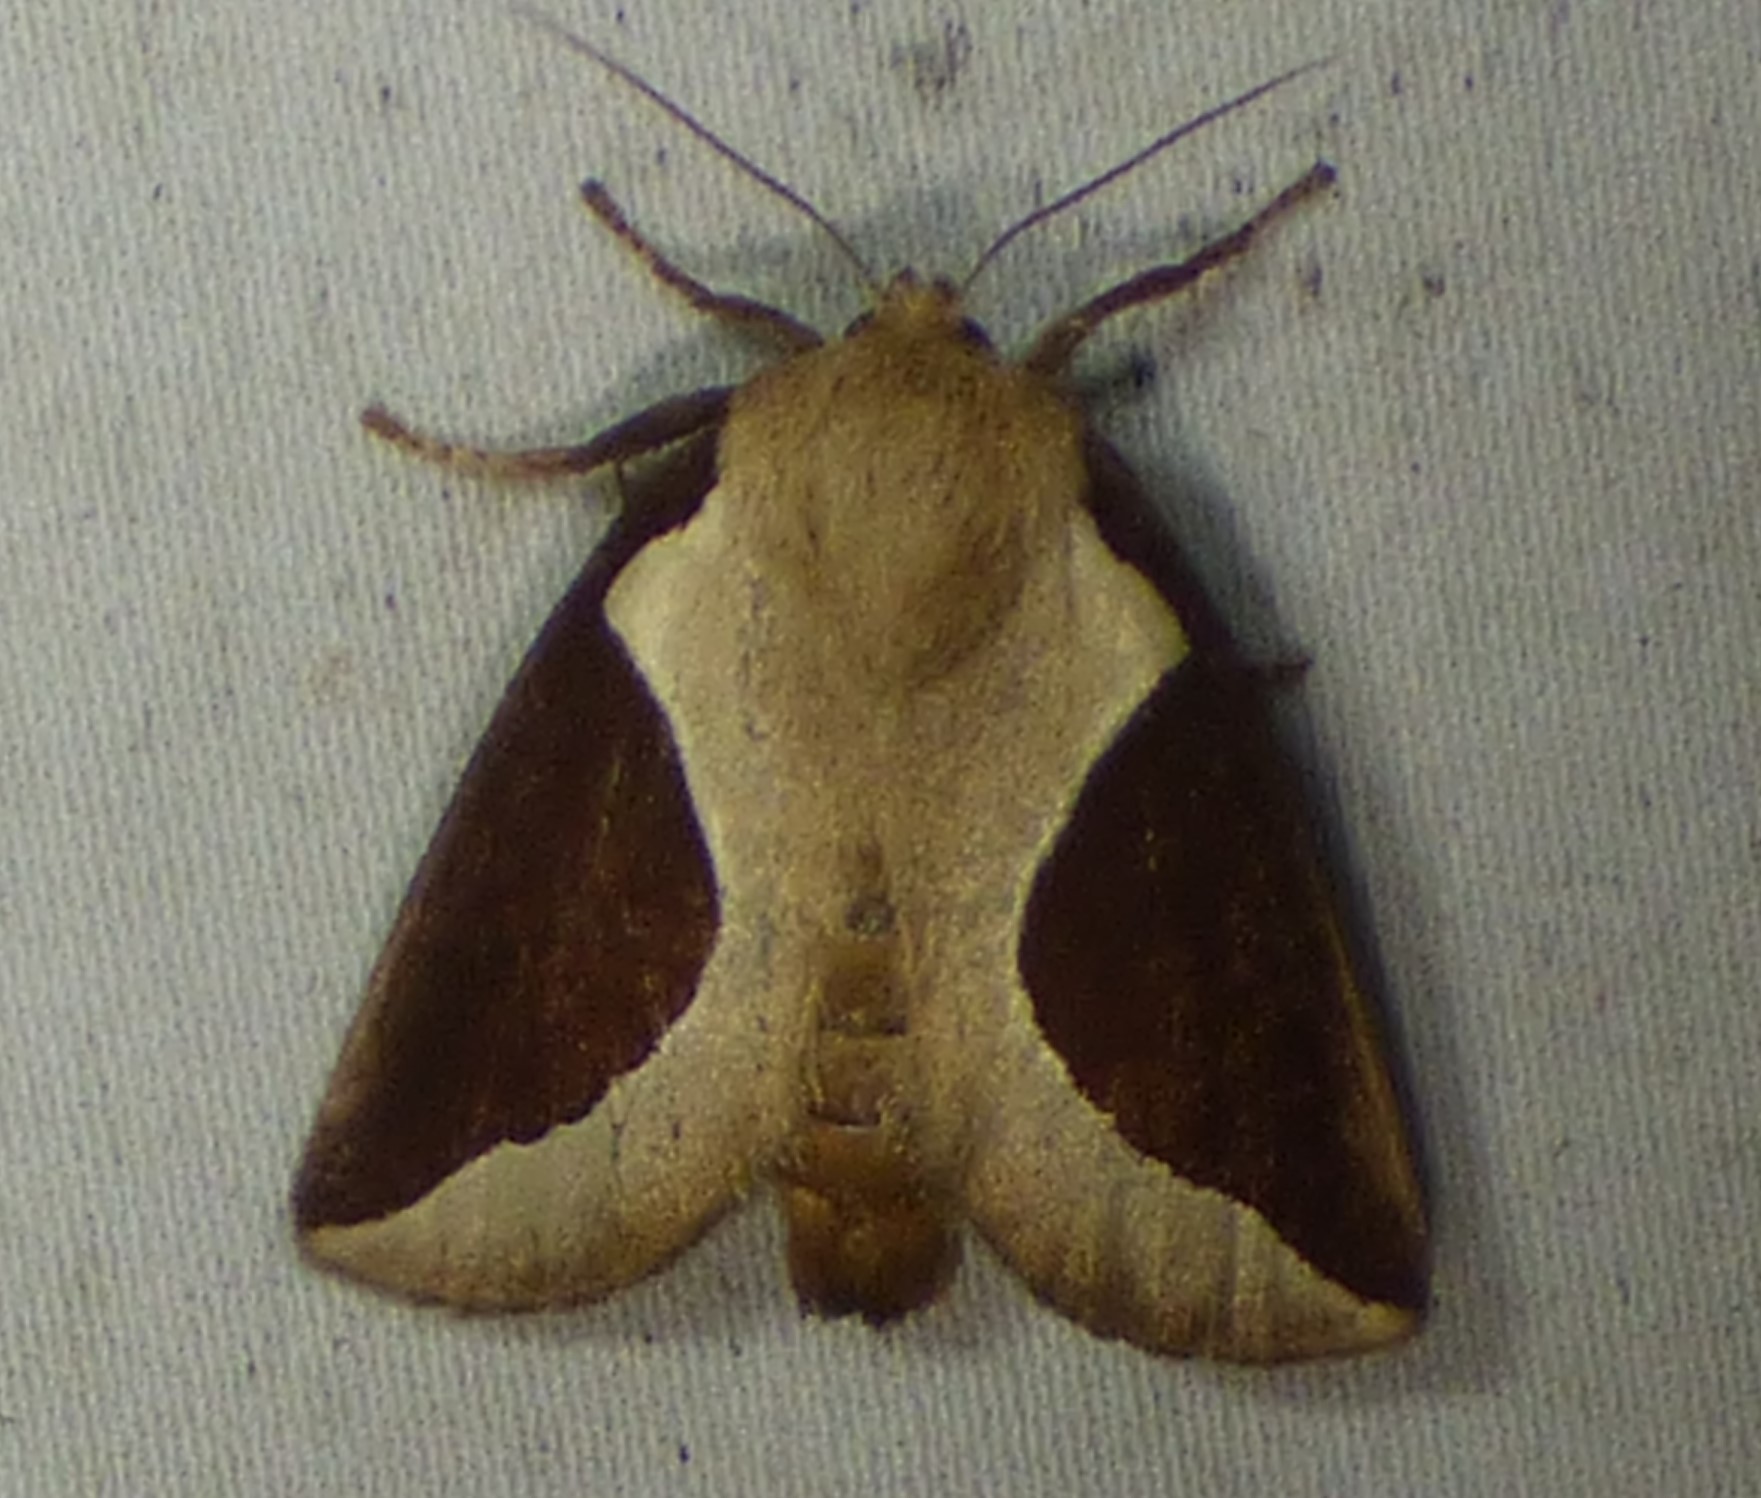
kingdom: Animalia
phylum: Arthropoda
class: Insecta
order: Lepidoptera
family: Limacodidae
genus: Prolimacodes
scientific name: Prolimacodes badia
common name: Skiff moth
